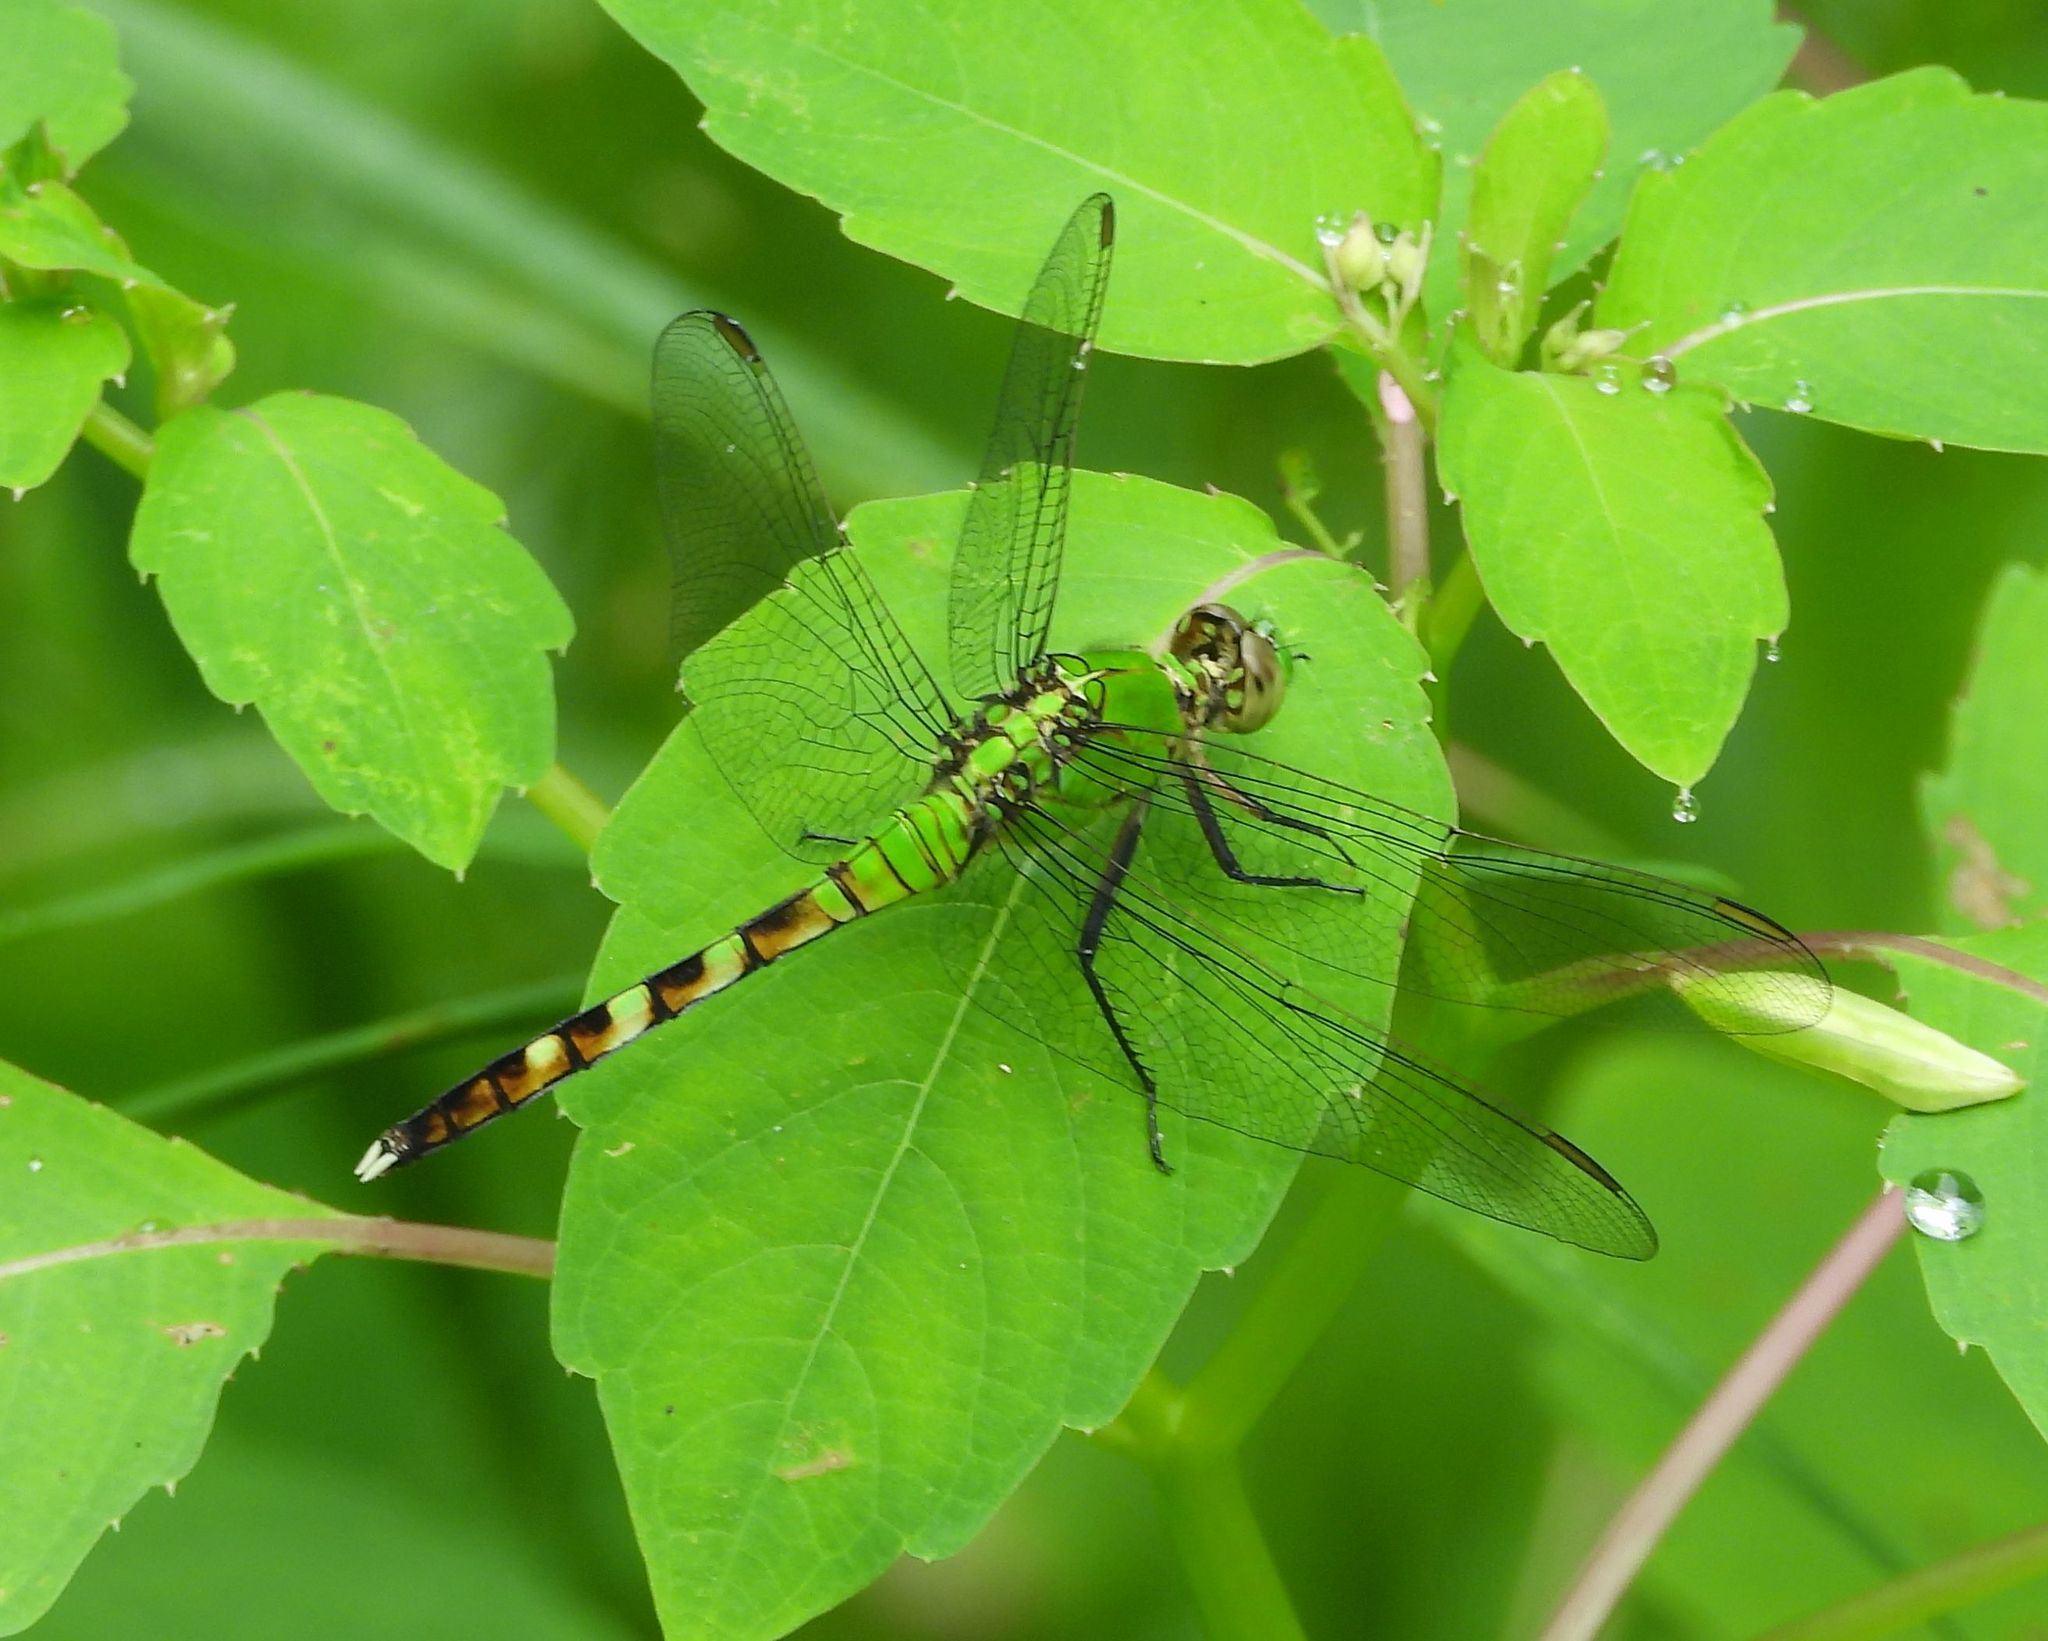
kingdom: Animalia
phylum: Arthropoda
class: Insecta
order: Odonata
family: Libellulidae
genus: Erythemis
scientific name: Erythemis simplicicollis
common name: Eastern pondhawk
